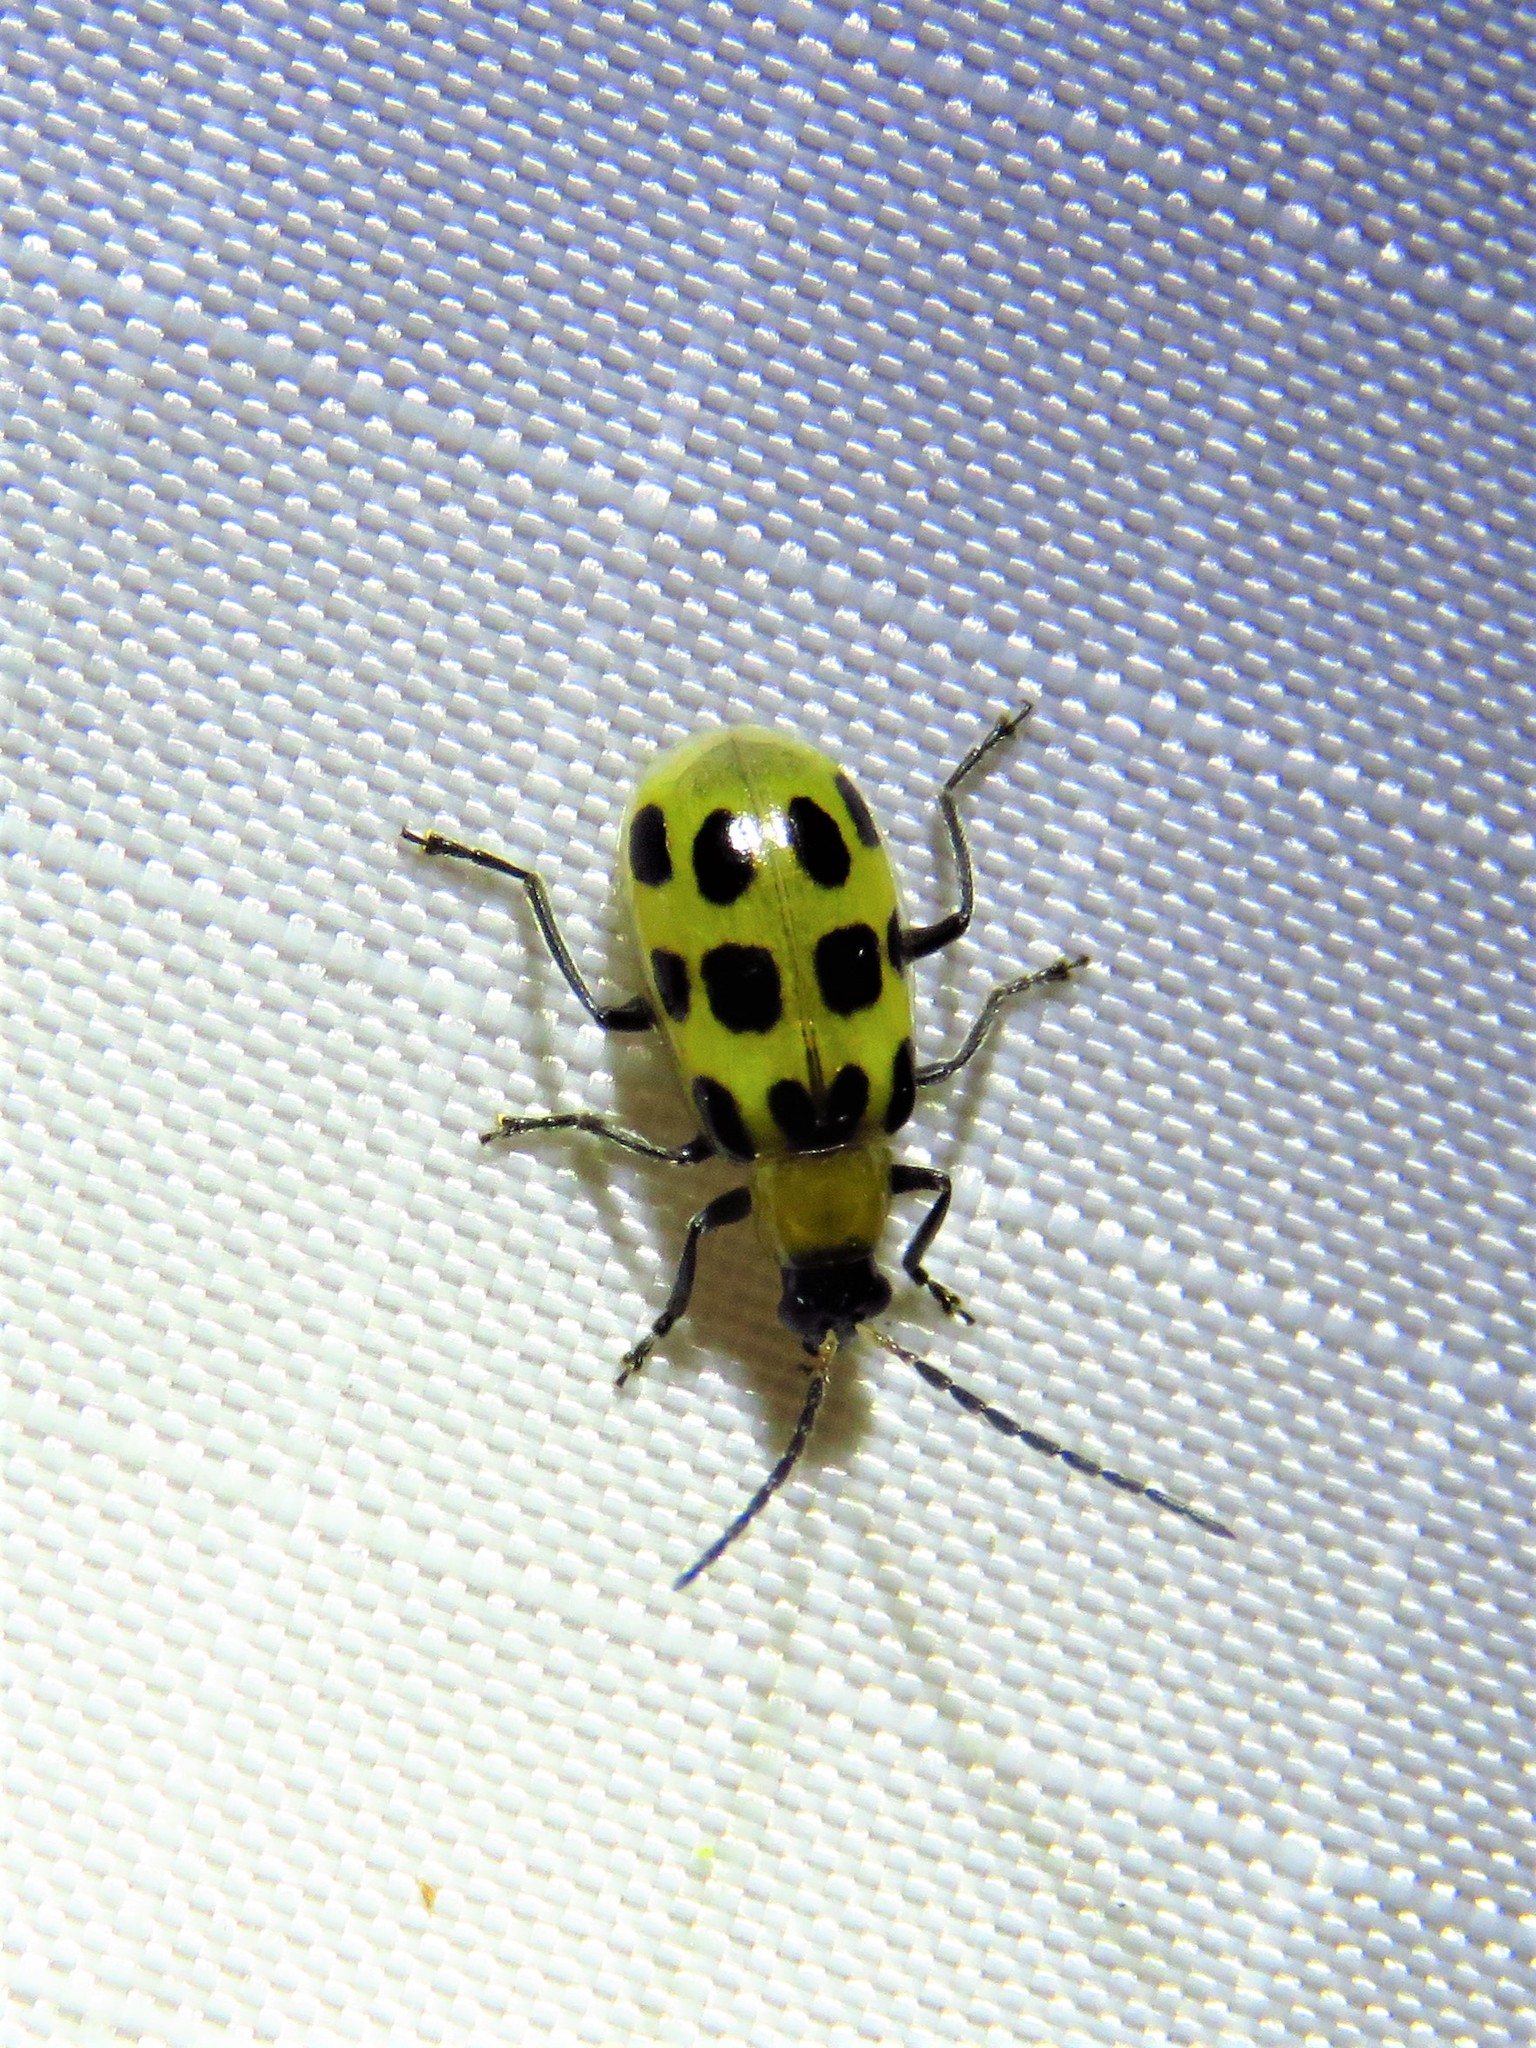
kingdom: Animalia
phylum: Arthropoda
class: Insecta
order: Coleoptera
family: Chrysomelidae
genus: Diabrotica
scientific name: Diabrotica undecimpunctata
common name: Spotted cucumber beetle
